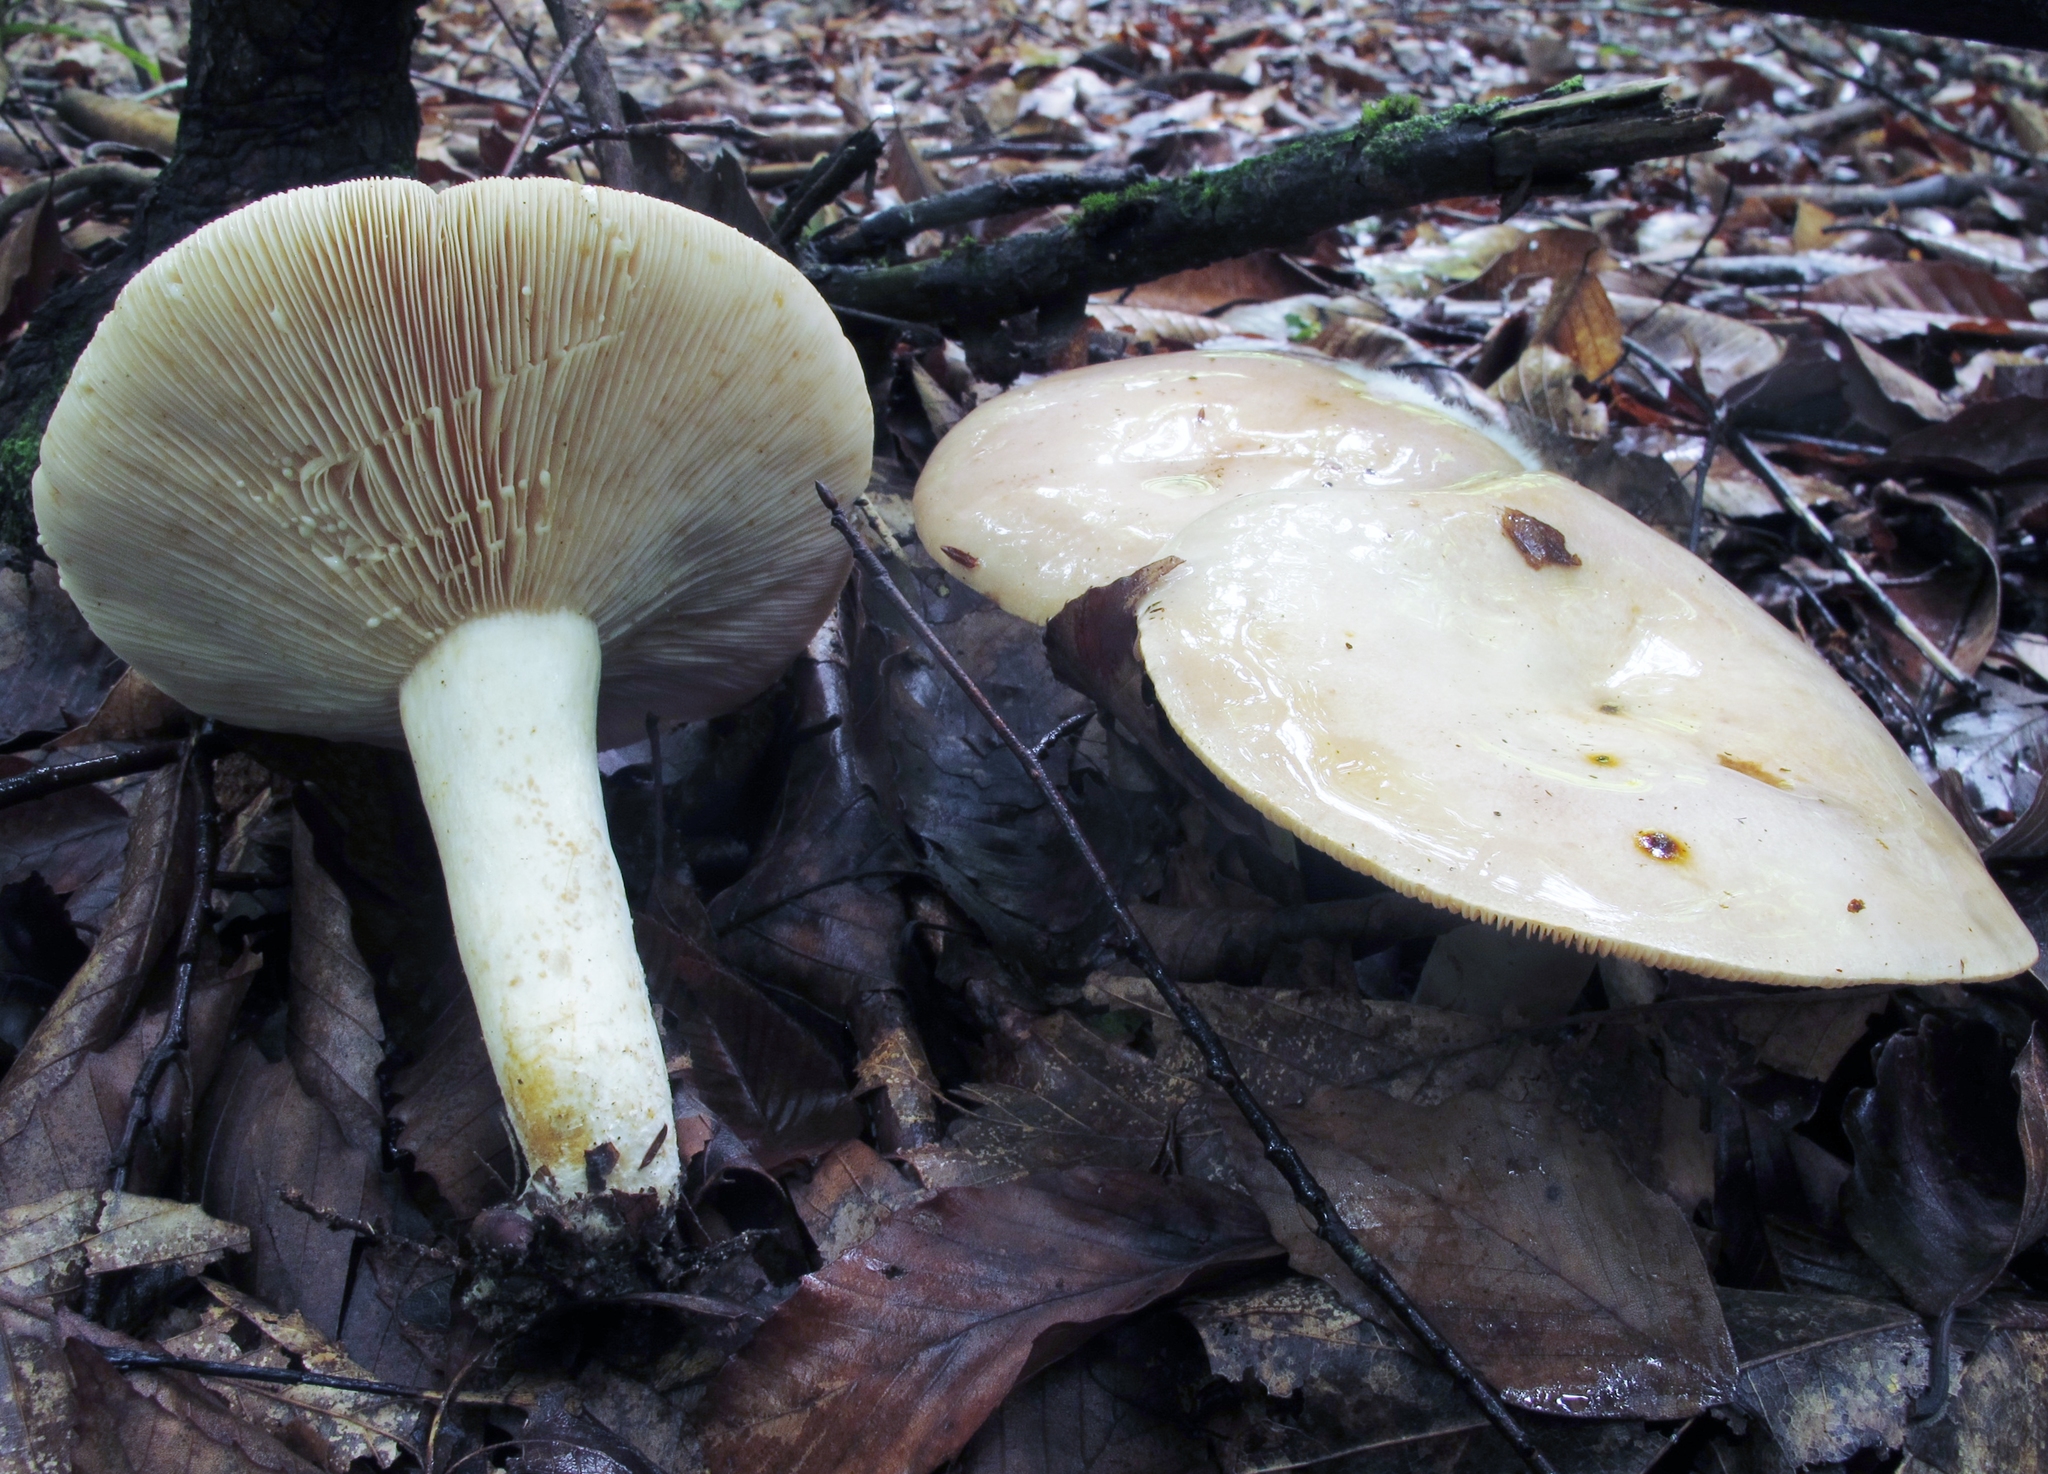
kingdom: Fungi
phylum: Basidiomycota
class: Agaricomycetes
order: Russulales
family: Russulaceae
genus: Lactarius
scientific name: Lactarius argillaceifolius
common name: Clay-gilled milkcap
